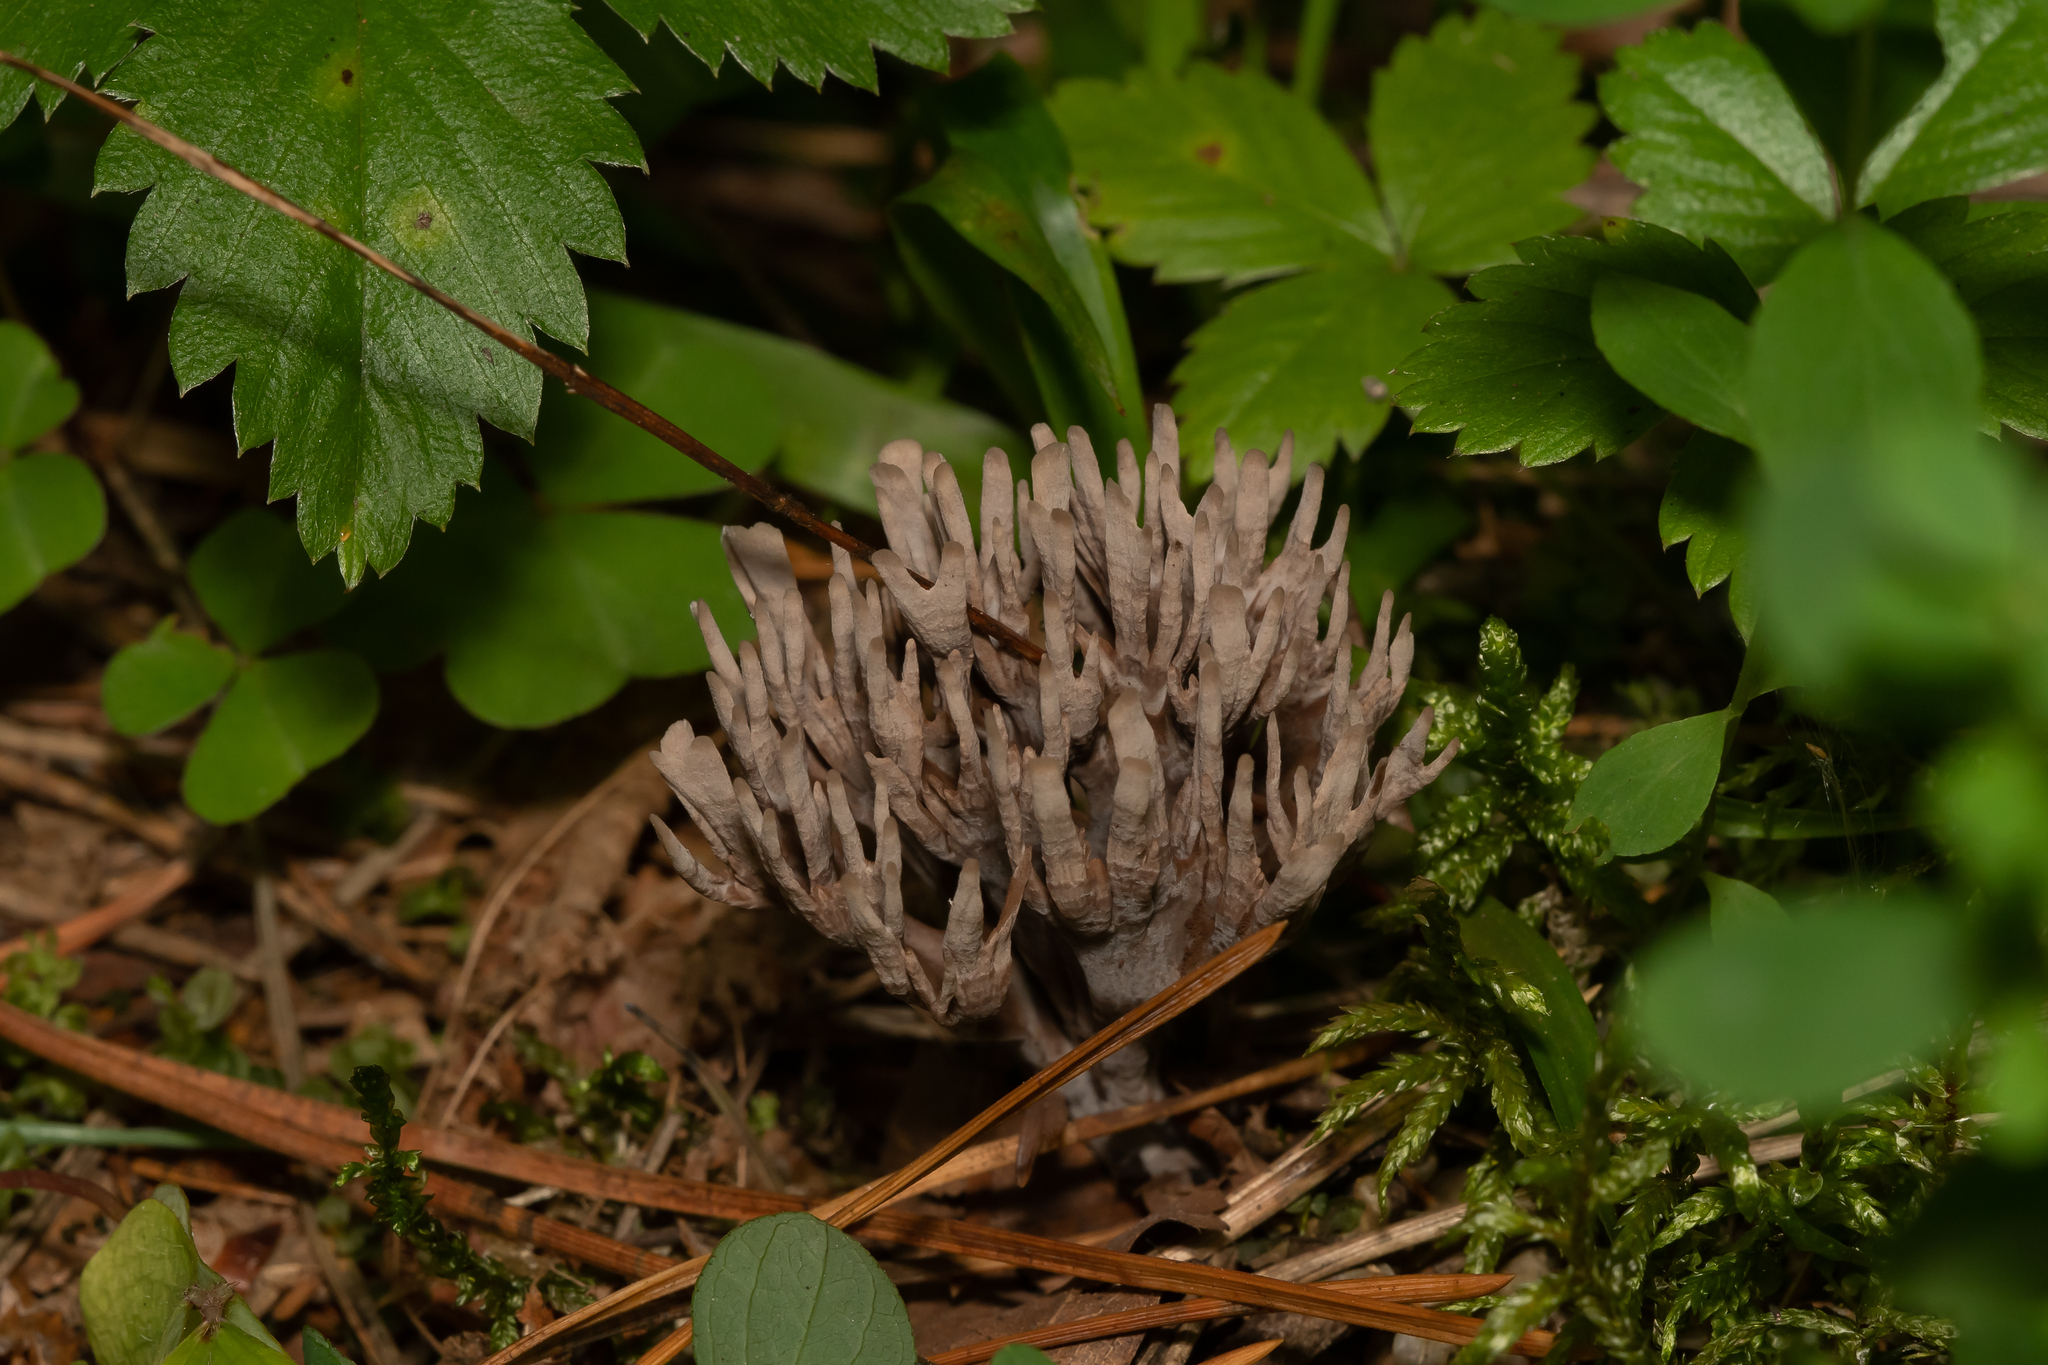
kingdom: Fungi
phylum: Basidiomycota
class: Agaricomycetes
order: Thelephorales
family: Thelephoraceae
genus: Thelephora
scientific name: Thelephora palmata
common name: Stinking earthfan
